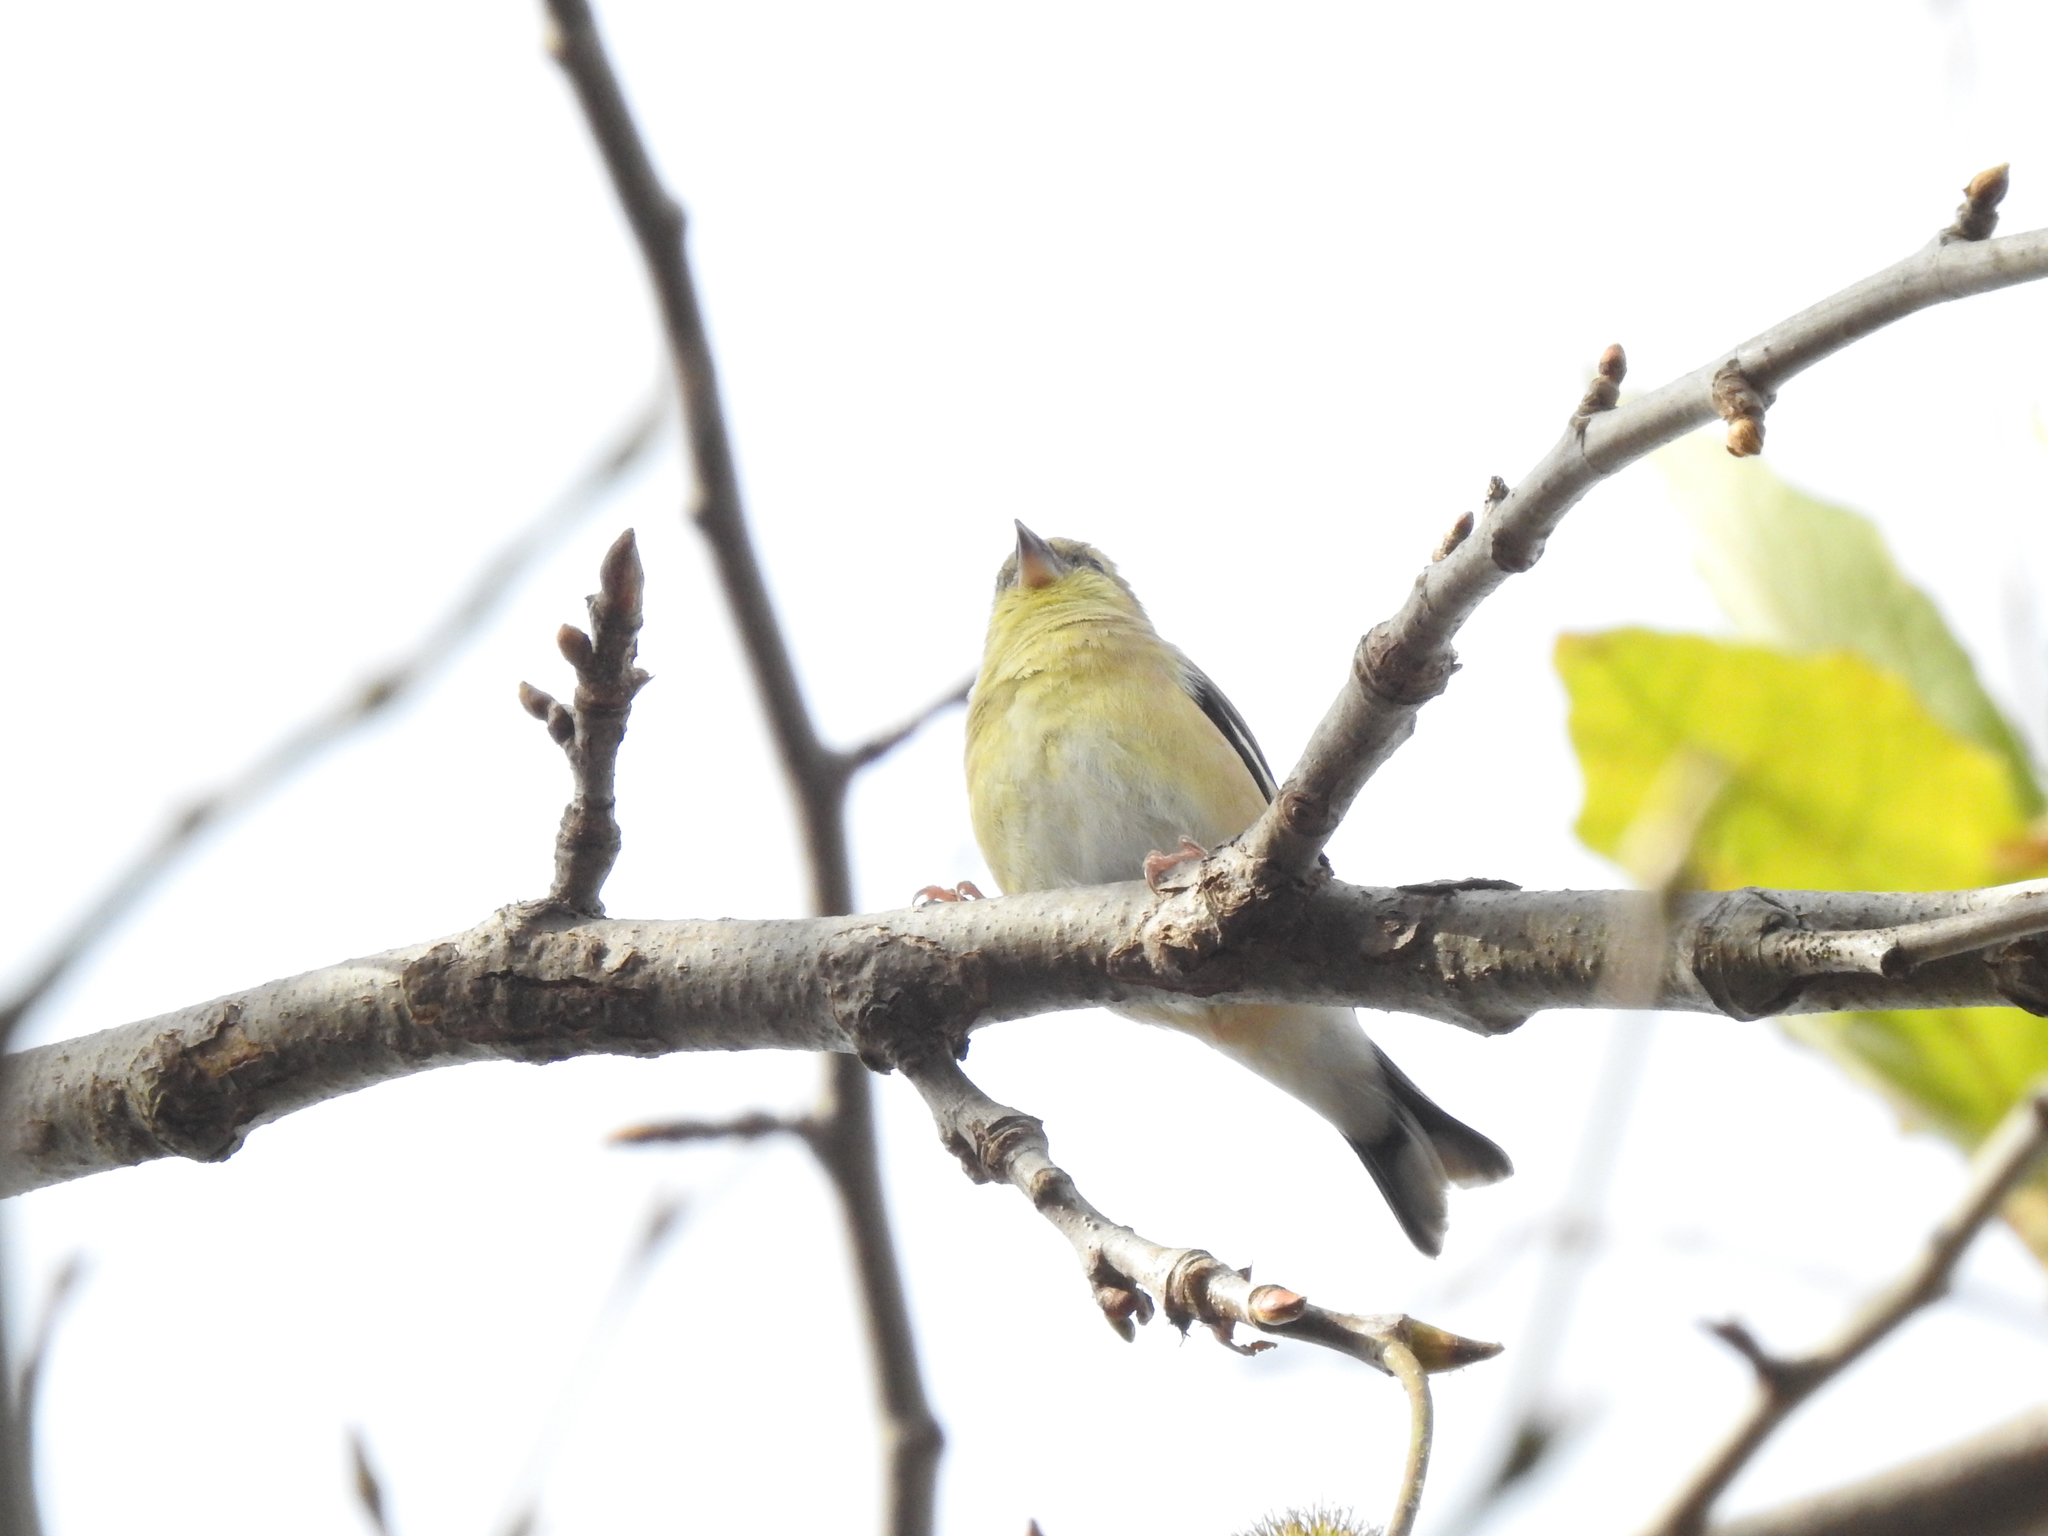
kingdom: Animalia
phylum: Chordata
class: Aves
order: Passeriformes
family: Fringillidae
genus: Spinus
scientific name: Spinus tristis
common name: American goldfinch
